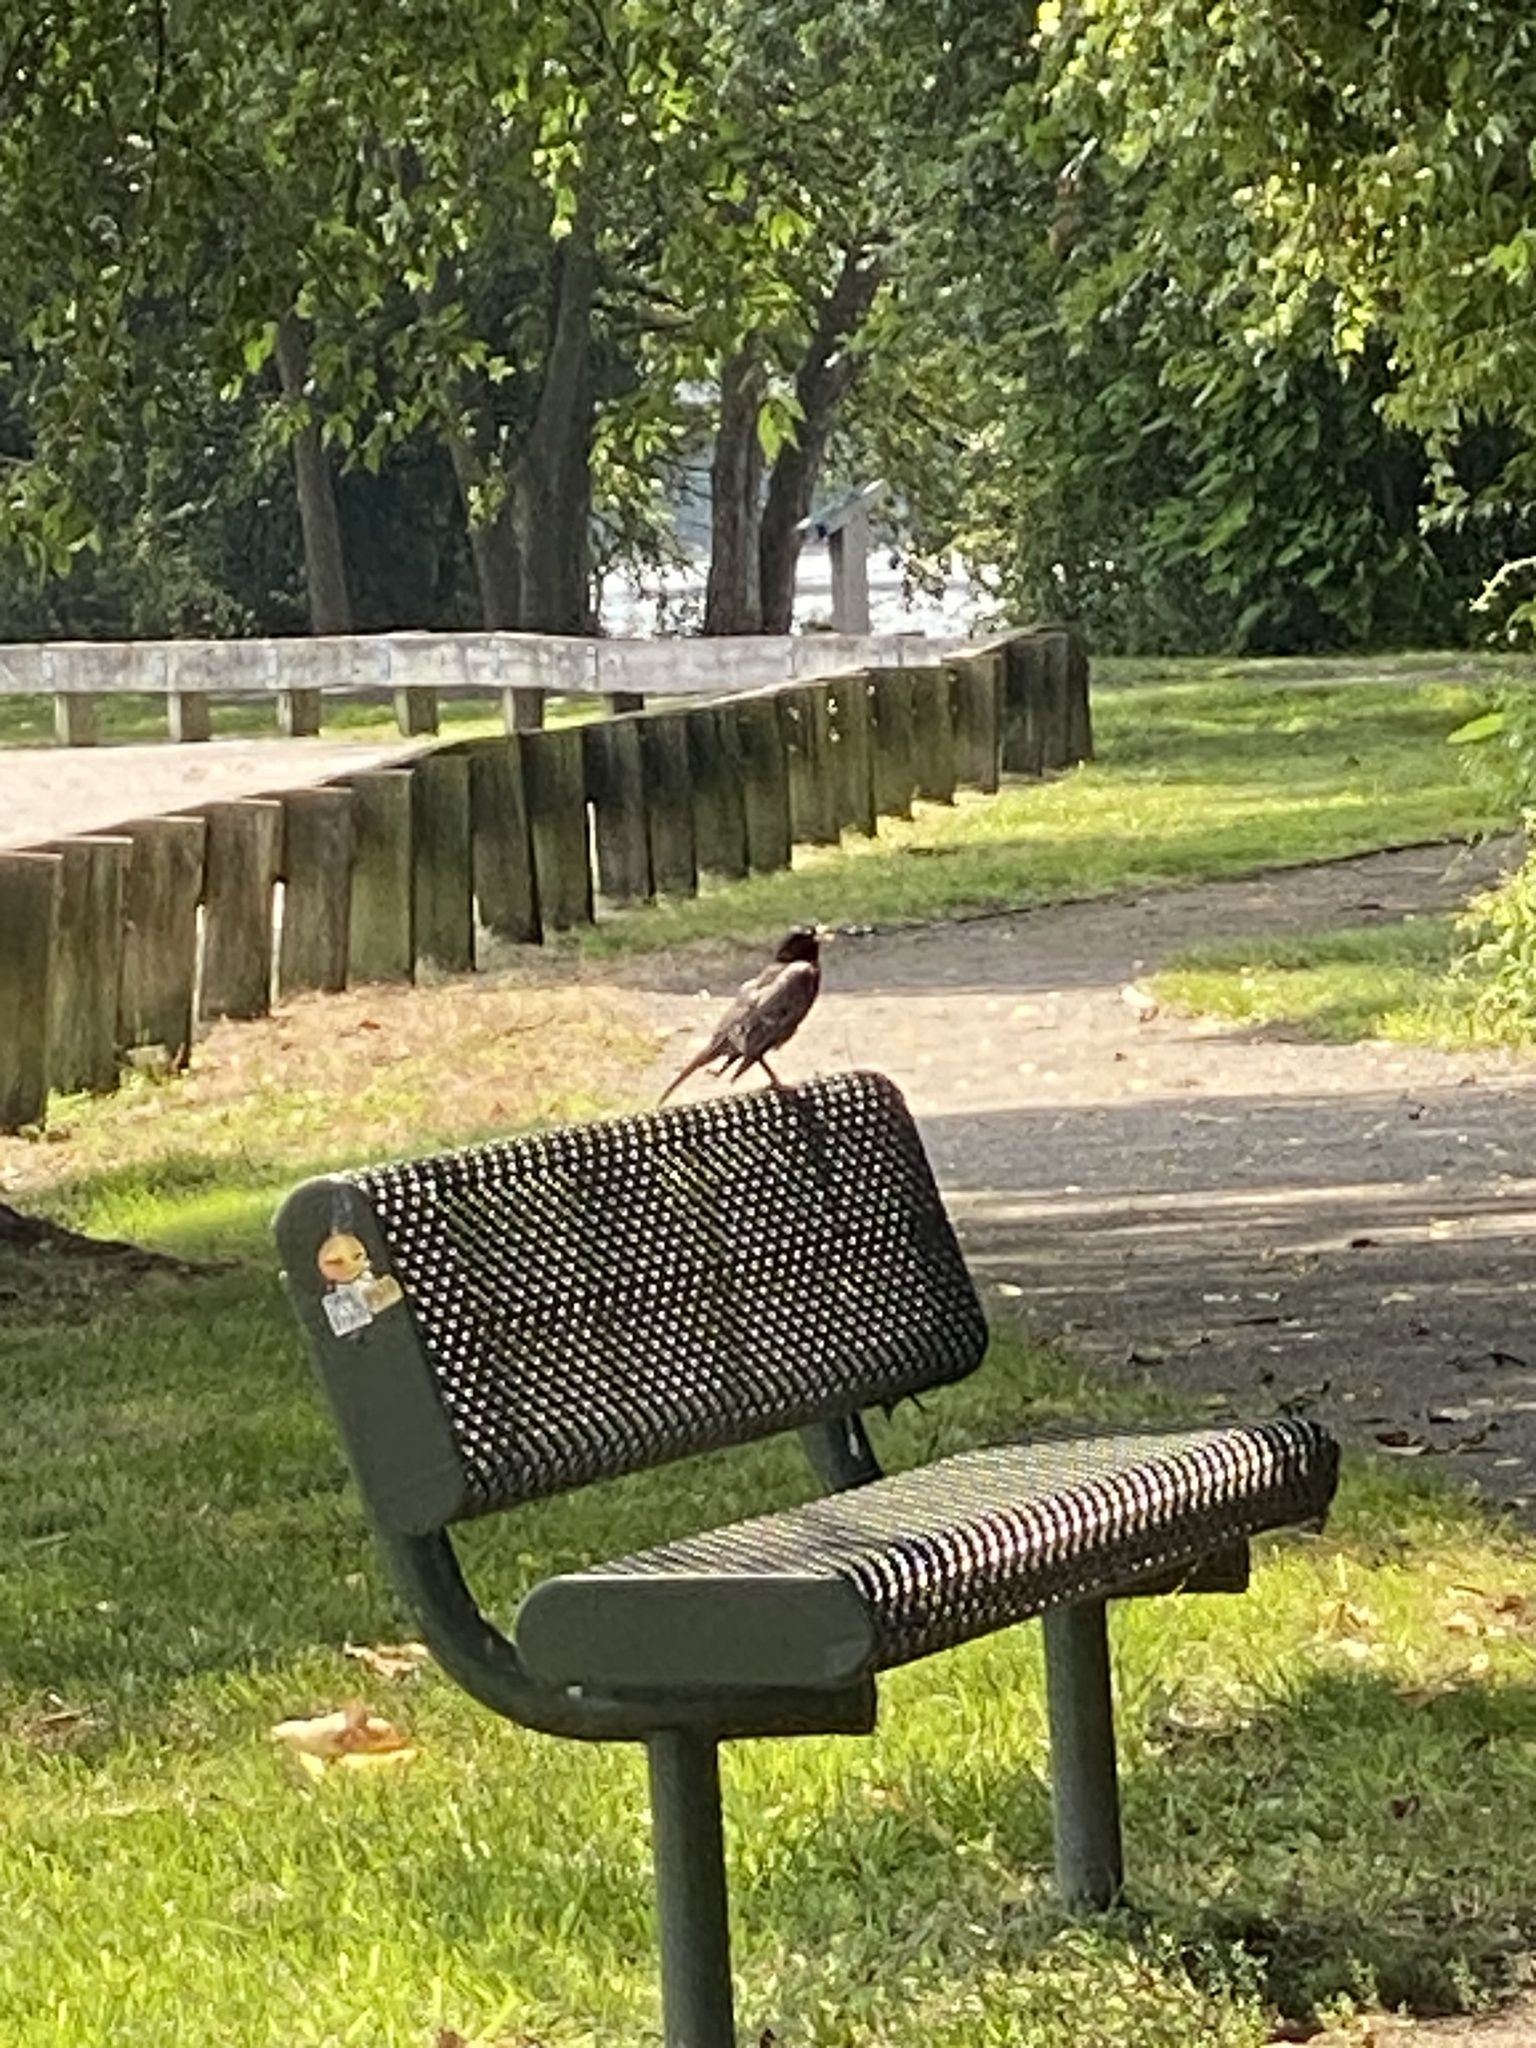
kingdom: Animalia
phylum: Chordata
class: Aves
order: Passeriformes
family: Turdidae
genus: Turdus
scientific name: Turdus migratorius
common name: American robin
